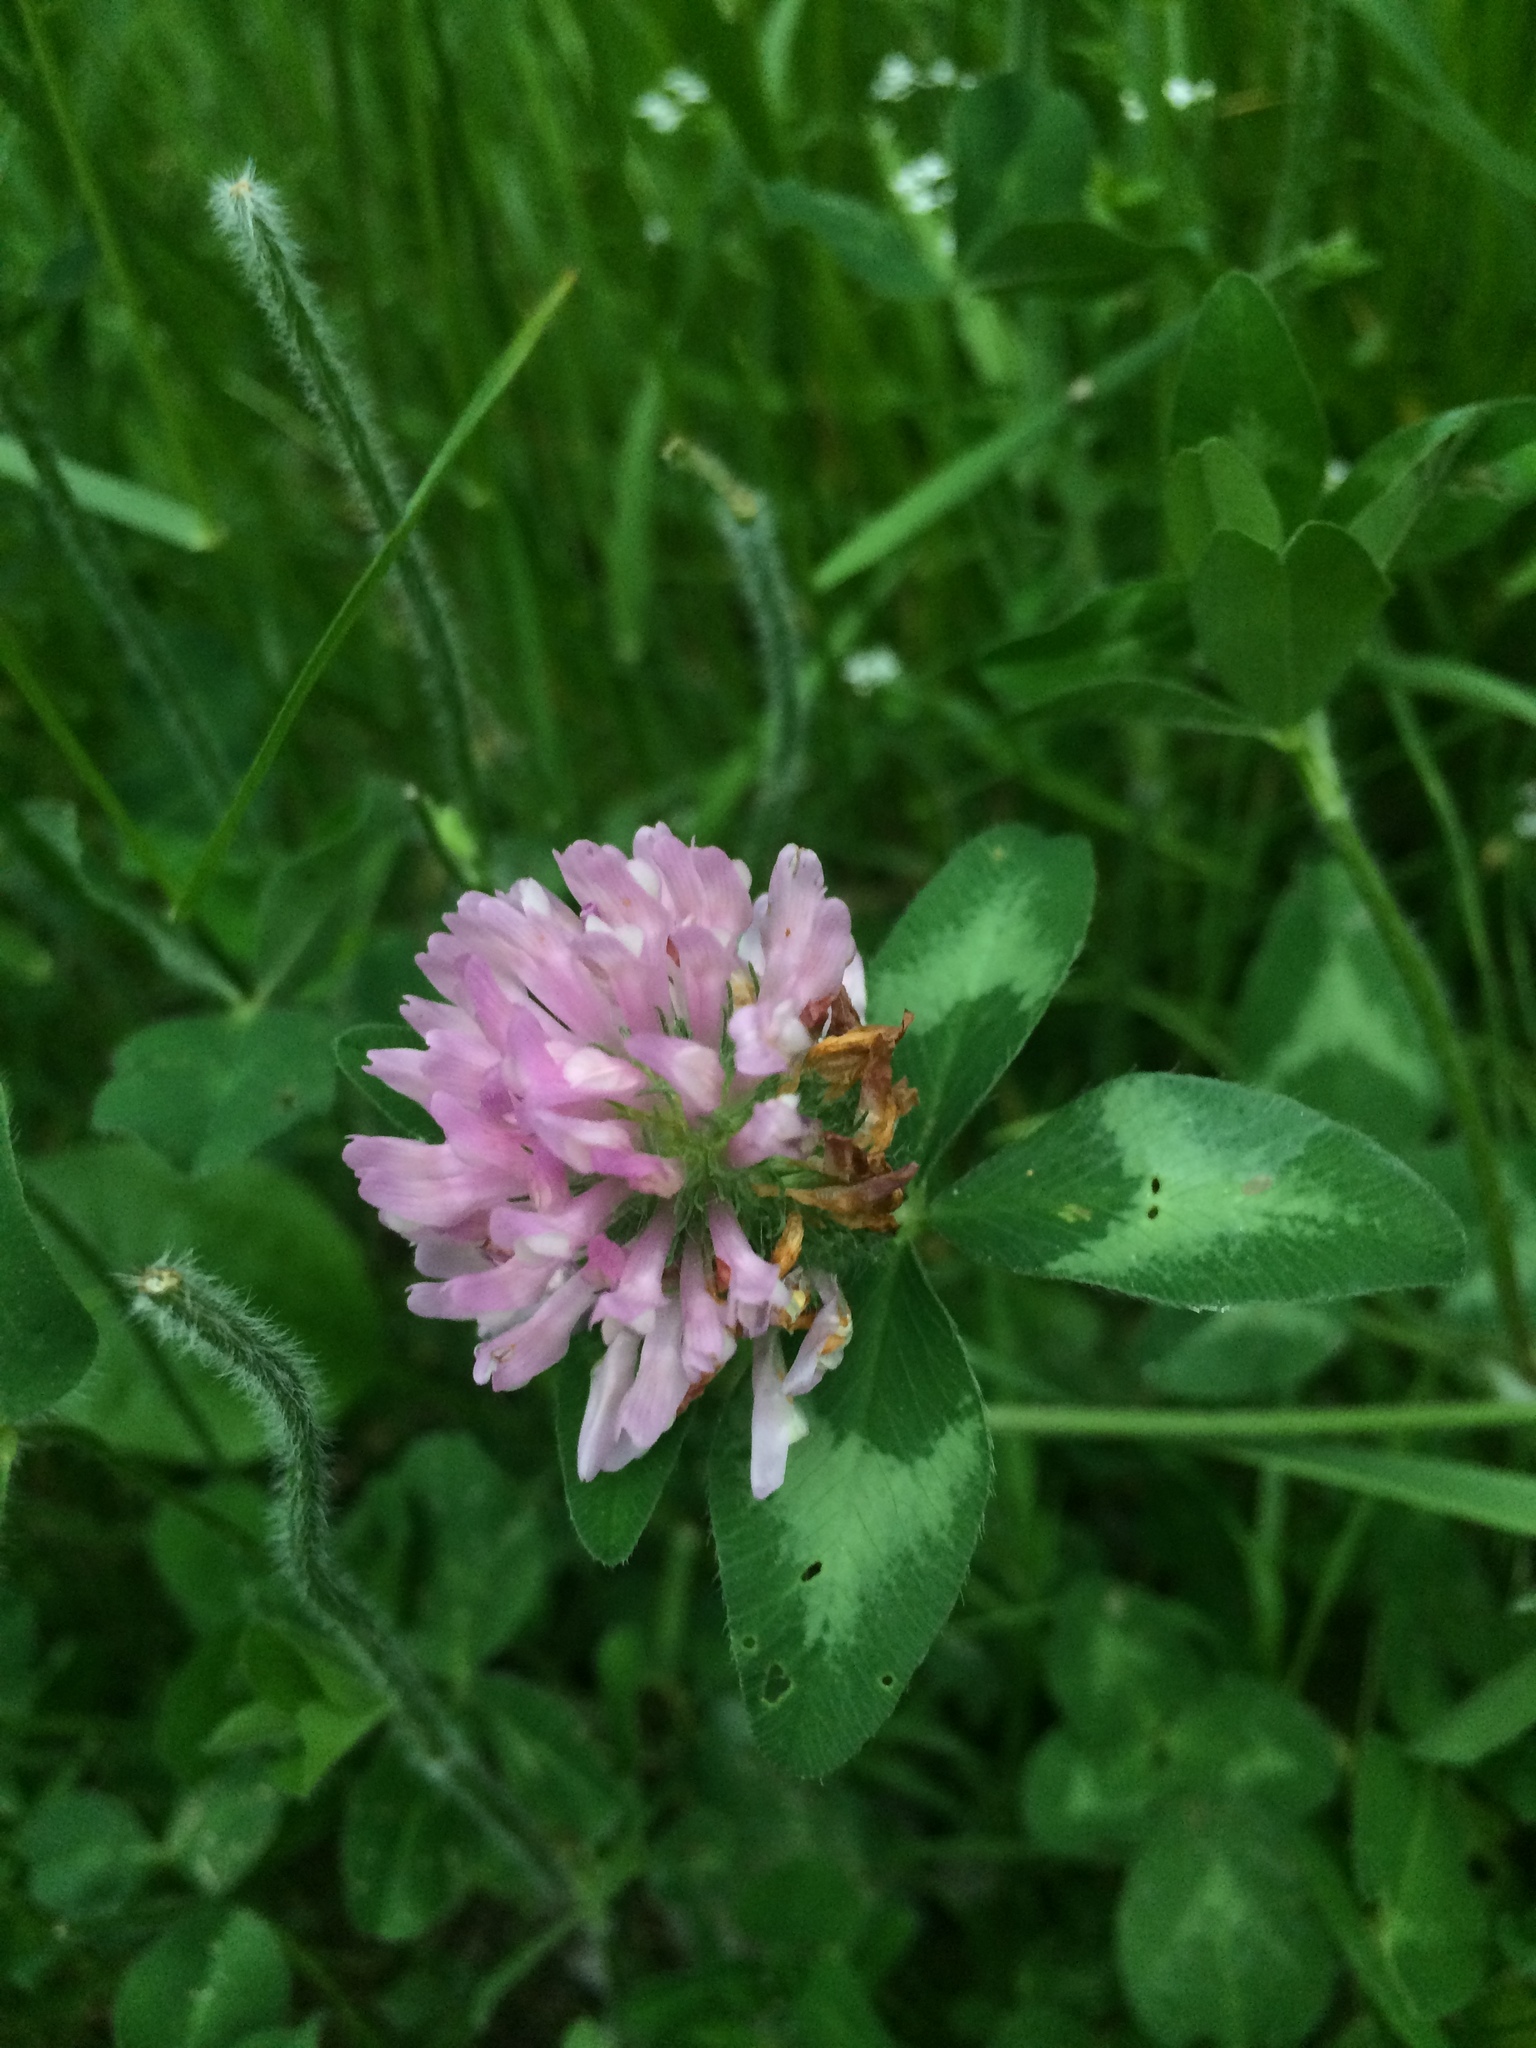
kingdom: Plantae
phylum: Tracheophyta
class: Magnoliopsida
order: Fabales
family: Fabaceae
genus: Trifolium
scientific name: Trifolium pratense
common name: Red clover
